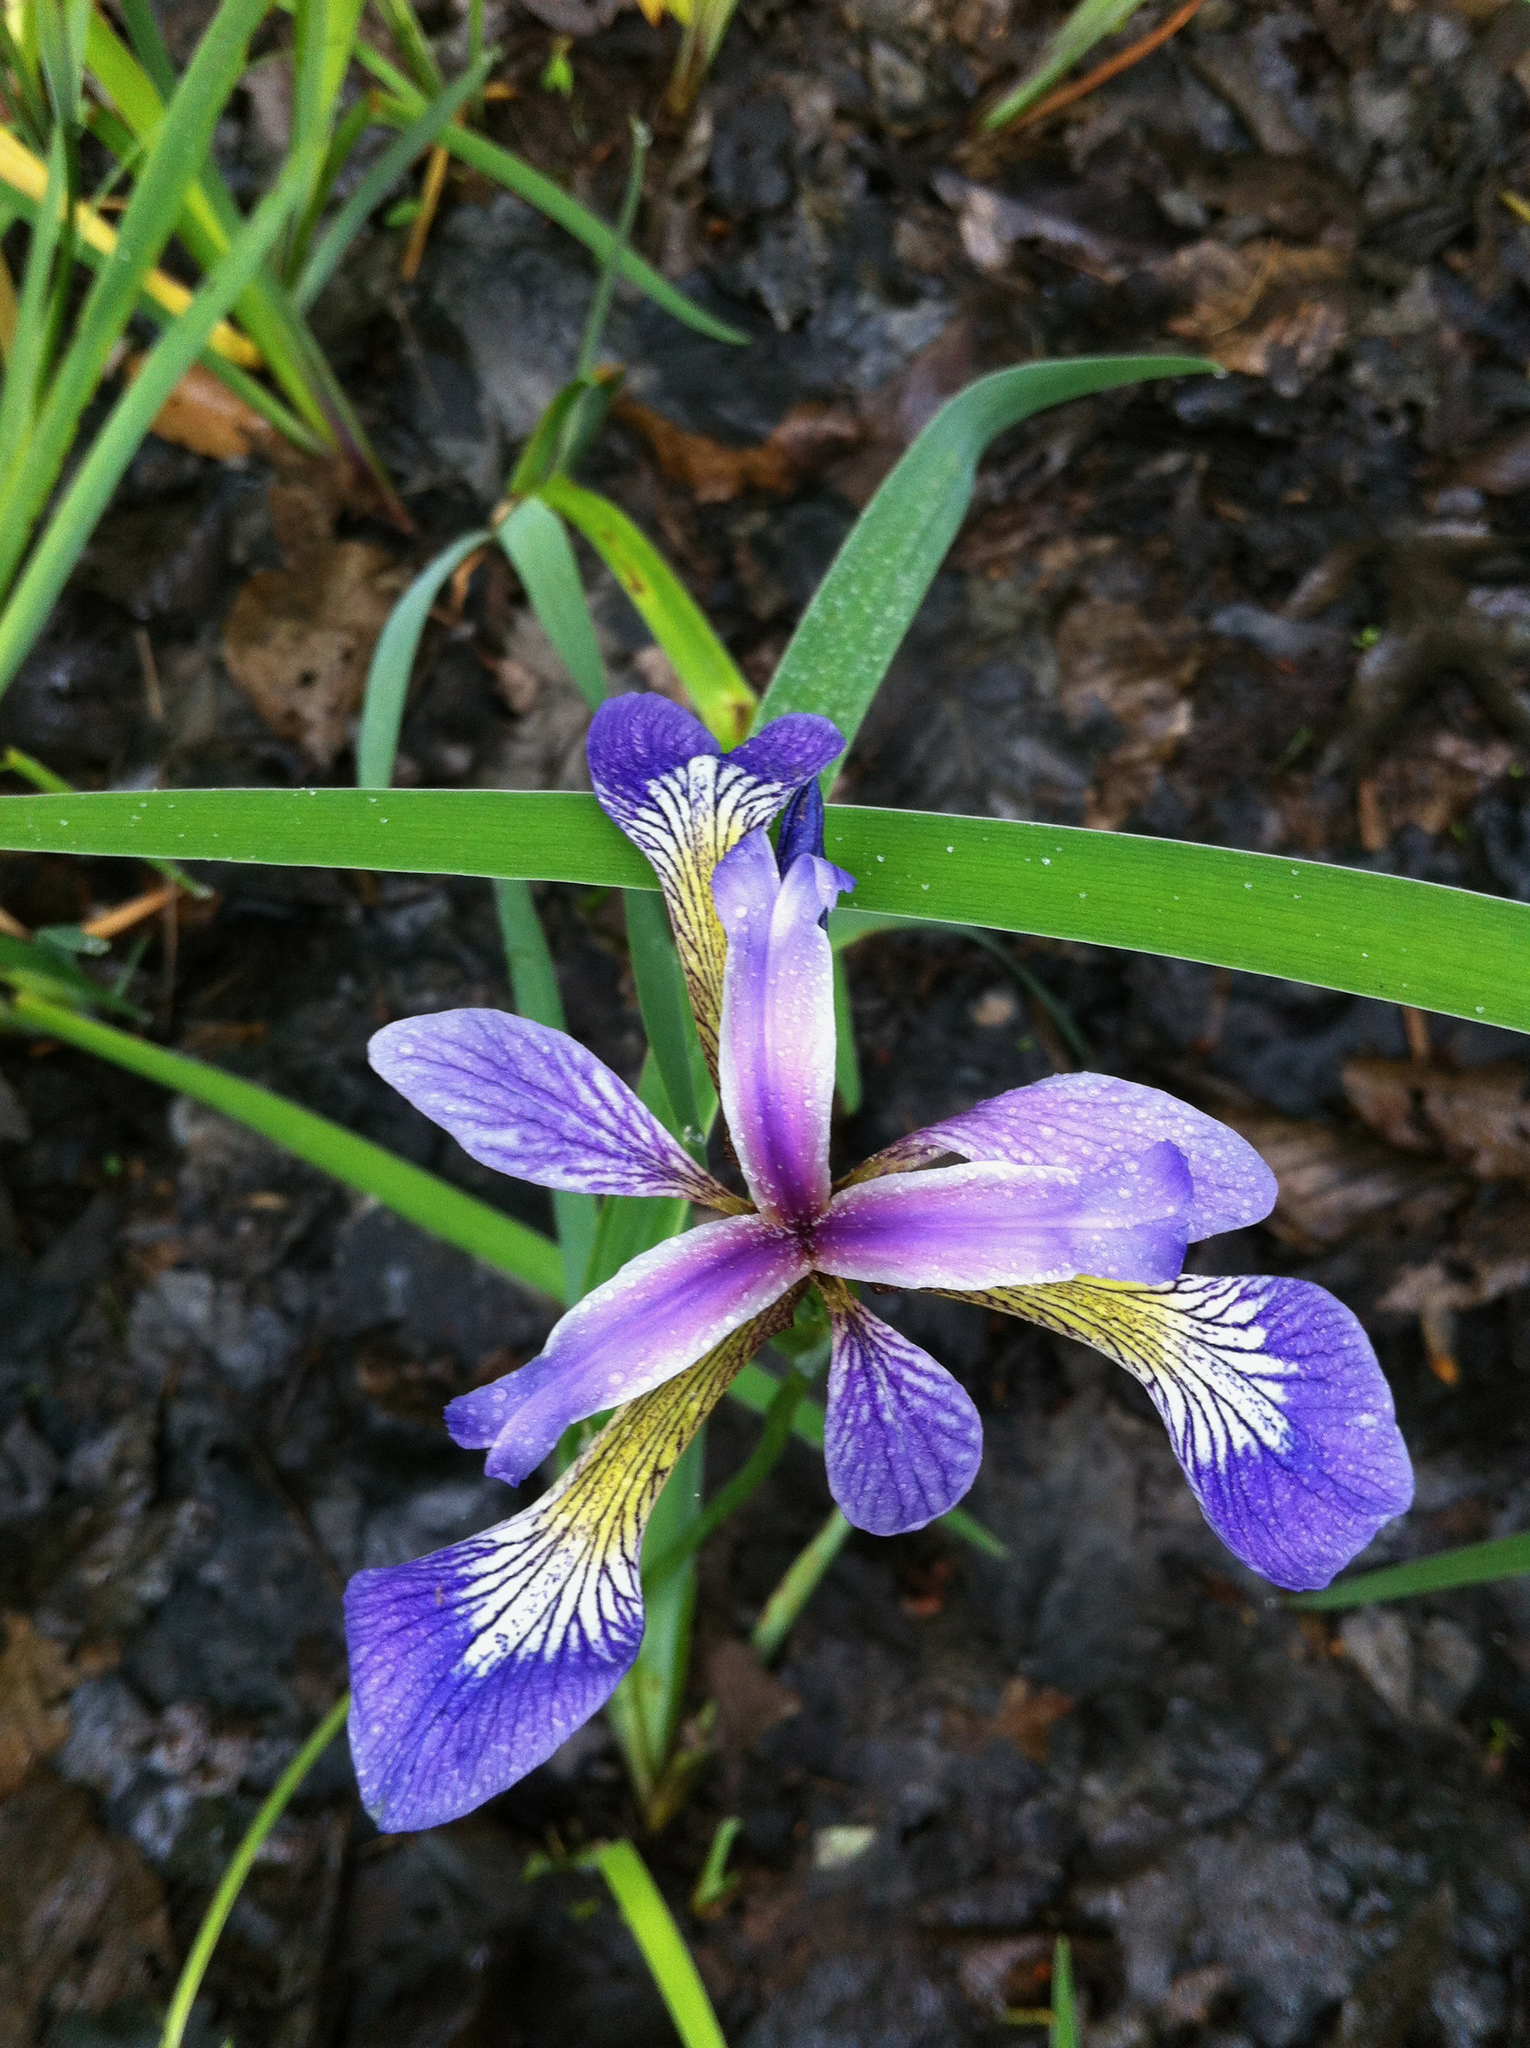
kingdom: Plantae
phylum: Tracheophyta
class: Liliopsida
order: Asparagales
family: Iridaceae
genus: Iris
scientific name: Iris versicolor
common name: Purple iris
